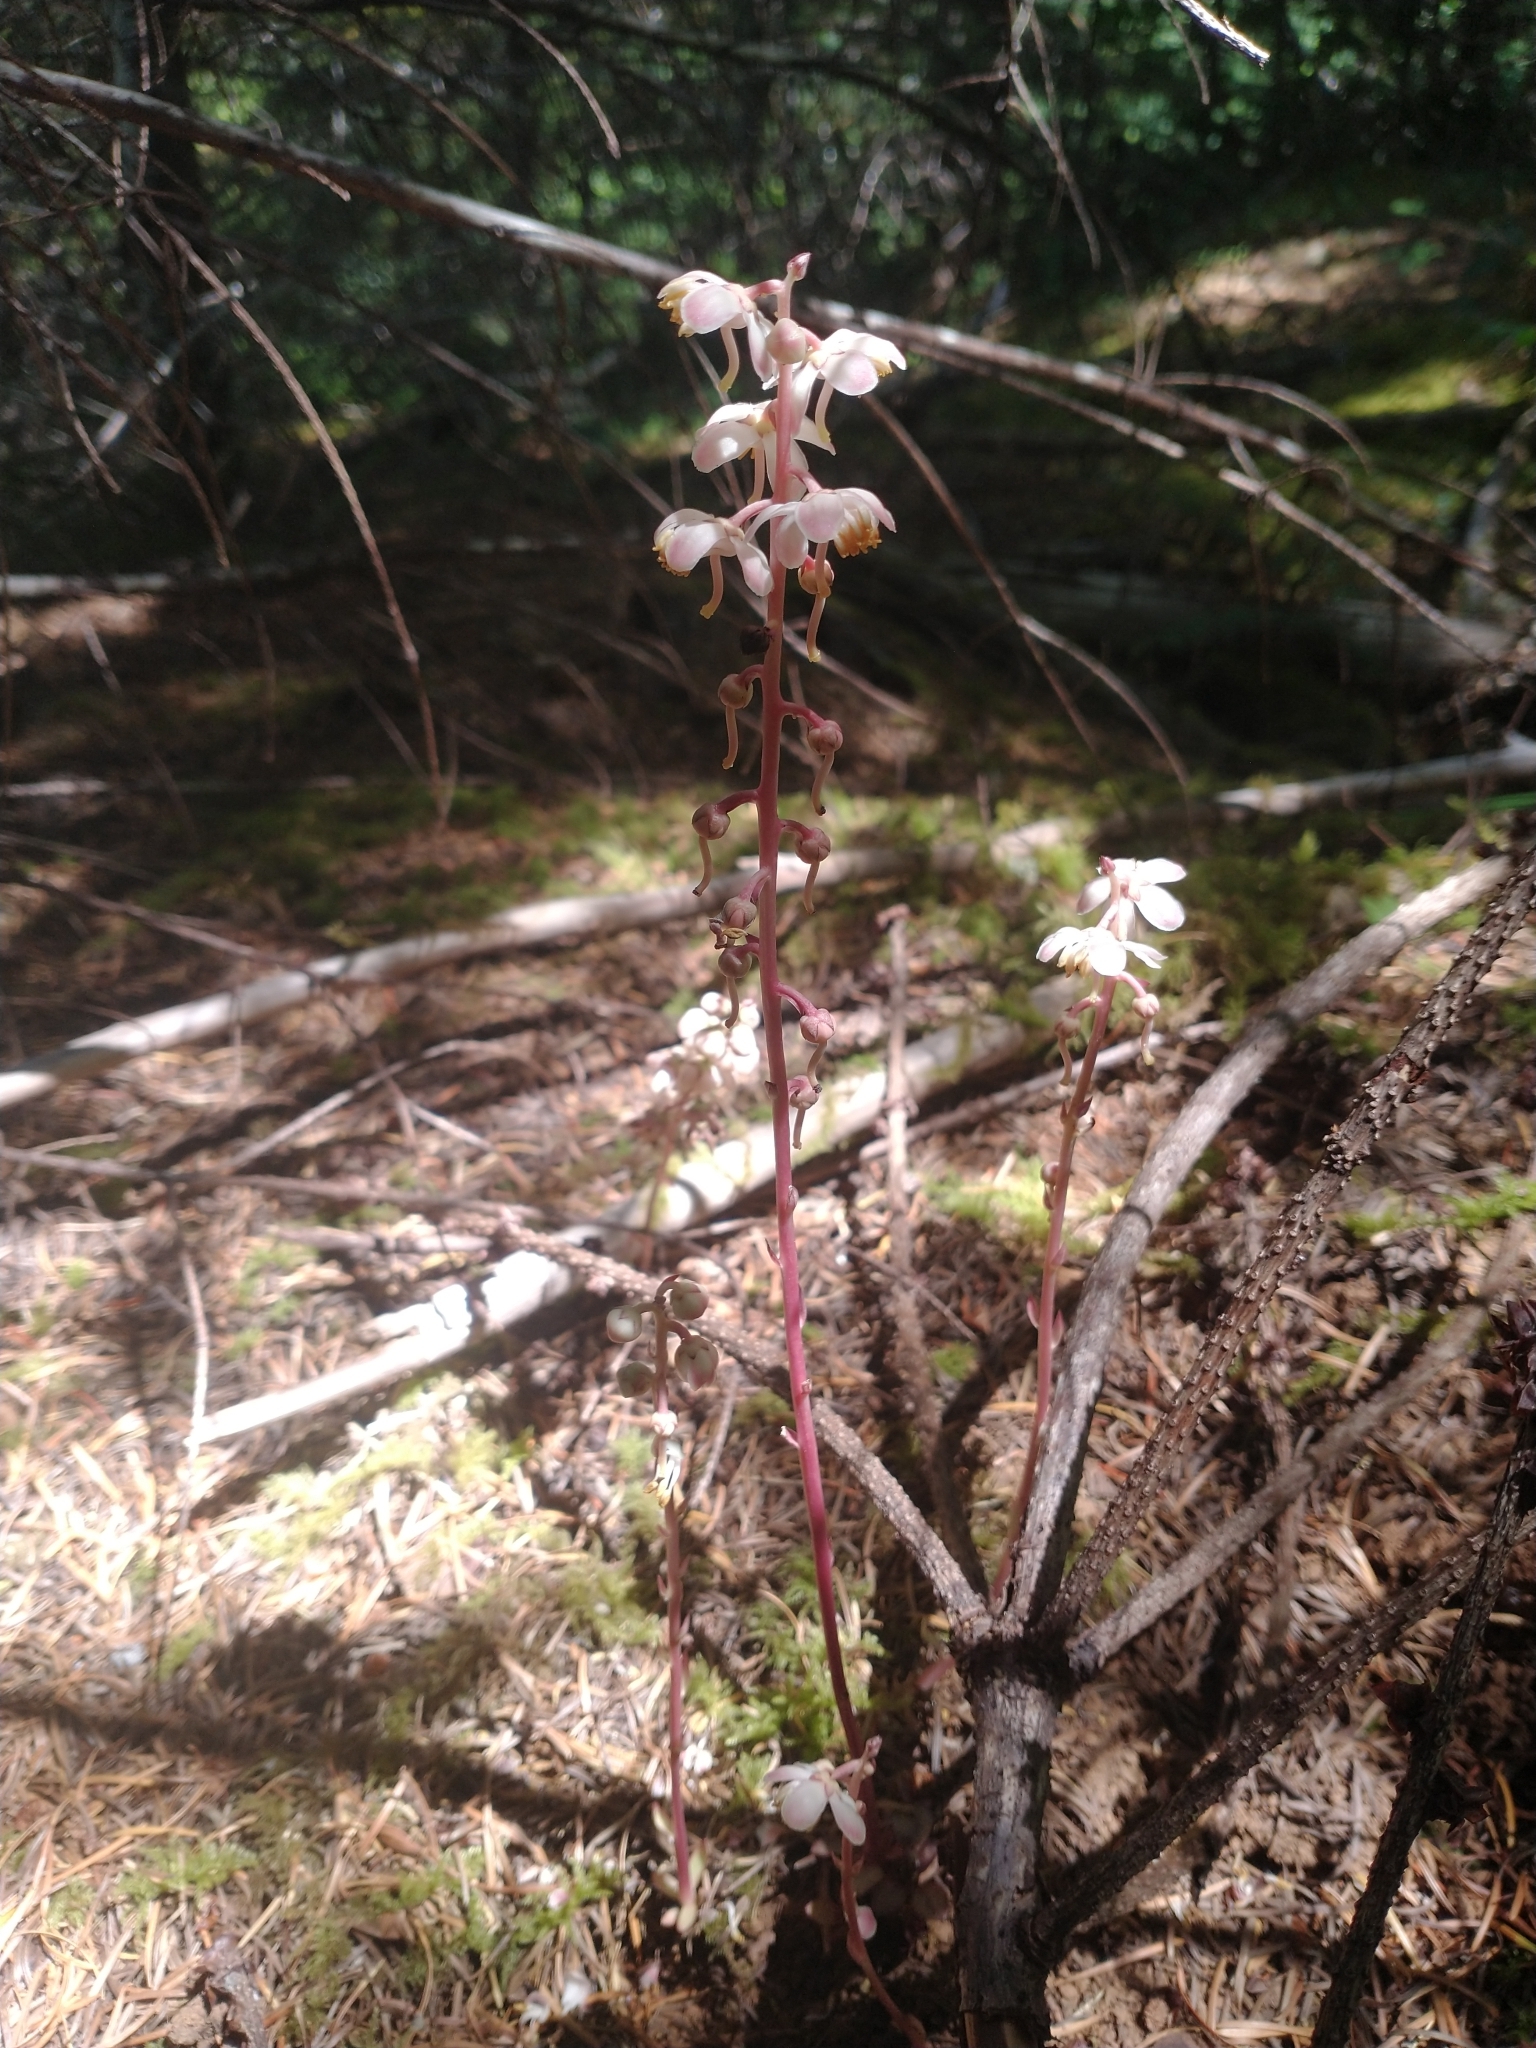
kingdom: Plantae
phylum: Tracheophyta
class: Magnoliopsida
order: Ericales
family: Ericaceae
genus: Pyrola
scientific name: Pyrola aphylla
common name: Leafless wintergreen
